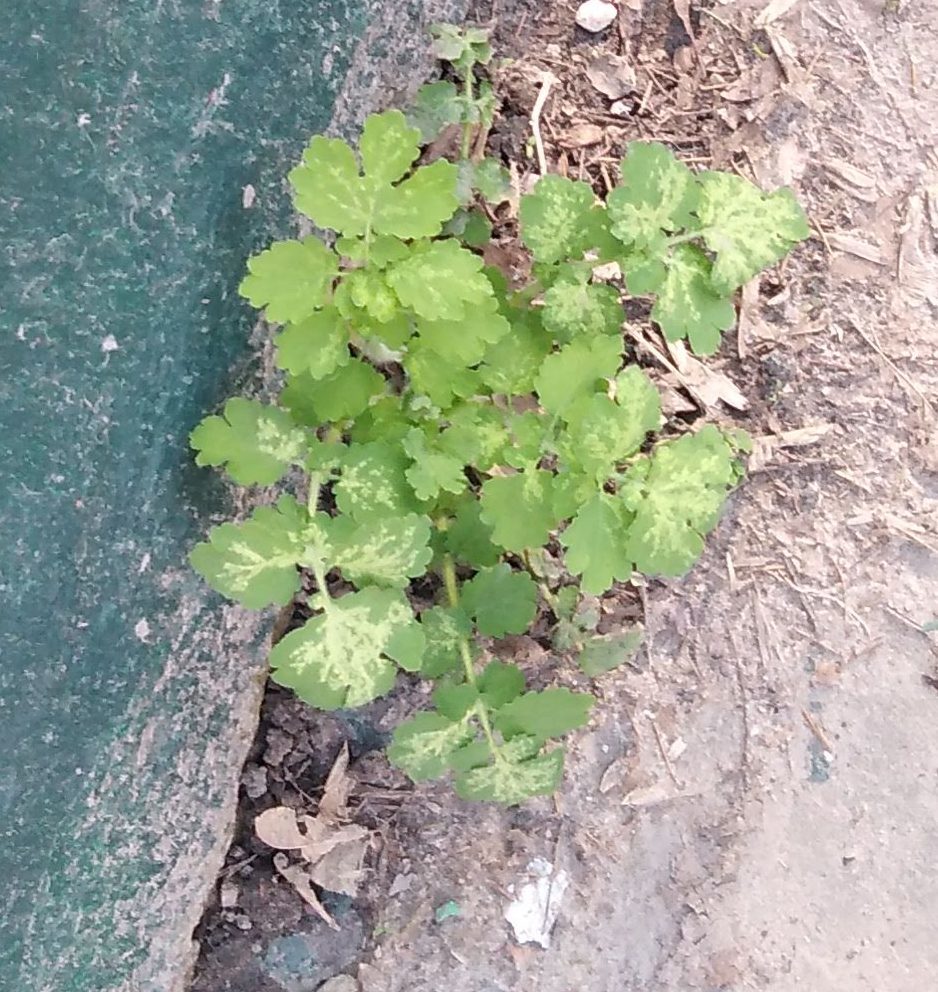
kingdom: Plantae
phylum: Tracheophyta
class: Magnoliopsida
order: Ranunculales
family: Papaveraceae
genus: Chelidonium
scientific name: Chelidonium majus
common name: Greater celandine
